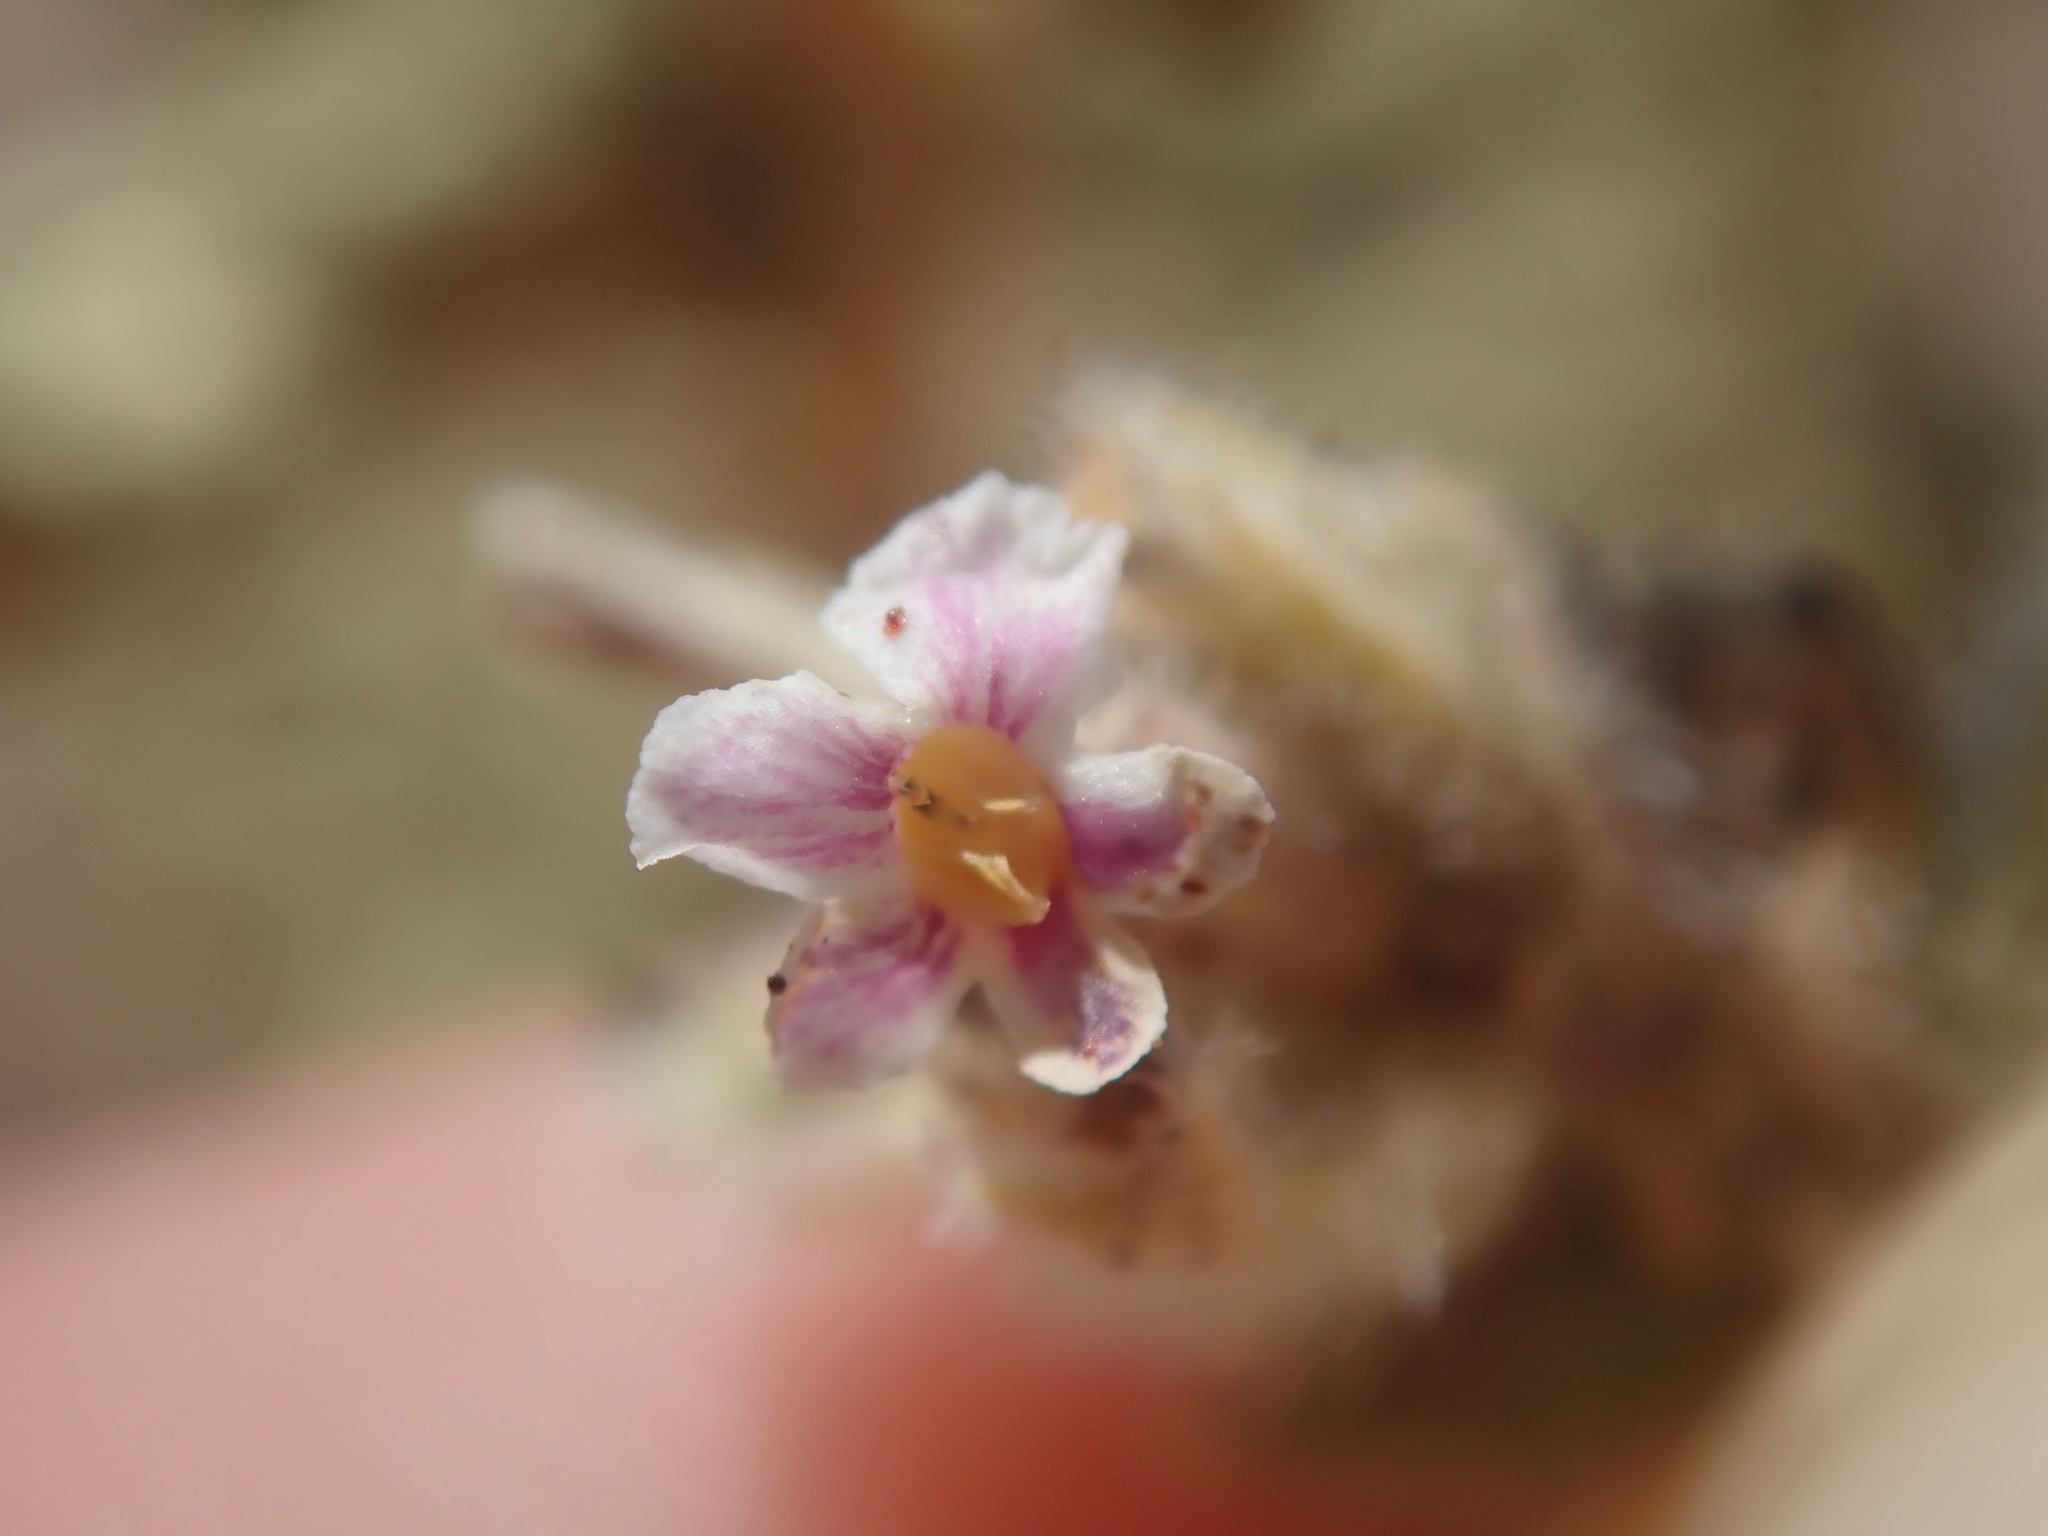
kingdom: Plantae
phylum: Tracheophyta
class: Magnoliopsida
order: Lamiales
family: Verbenaceae
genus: Aloysia
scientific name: Aloysia tarapacana
